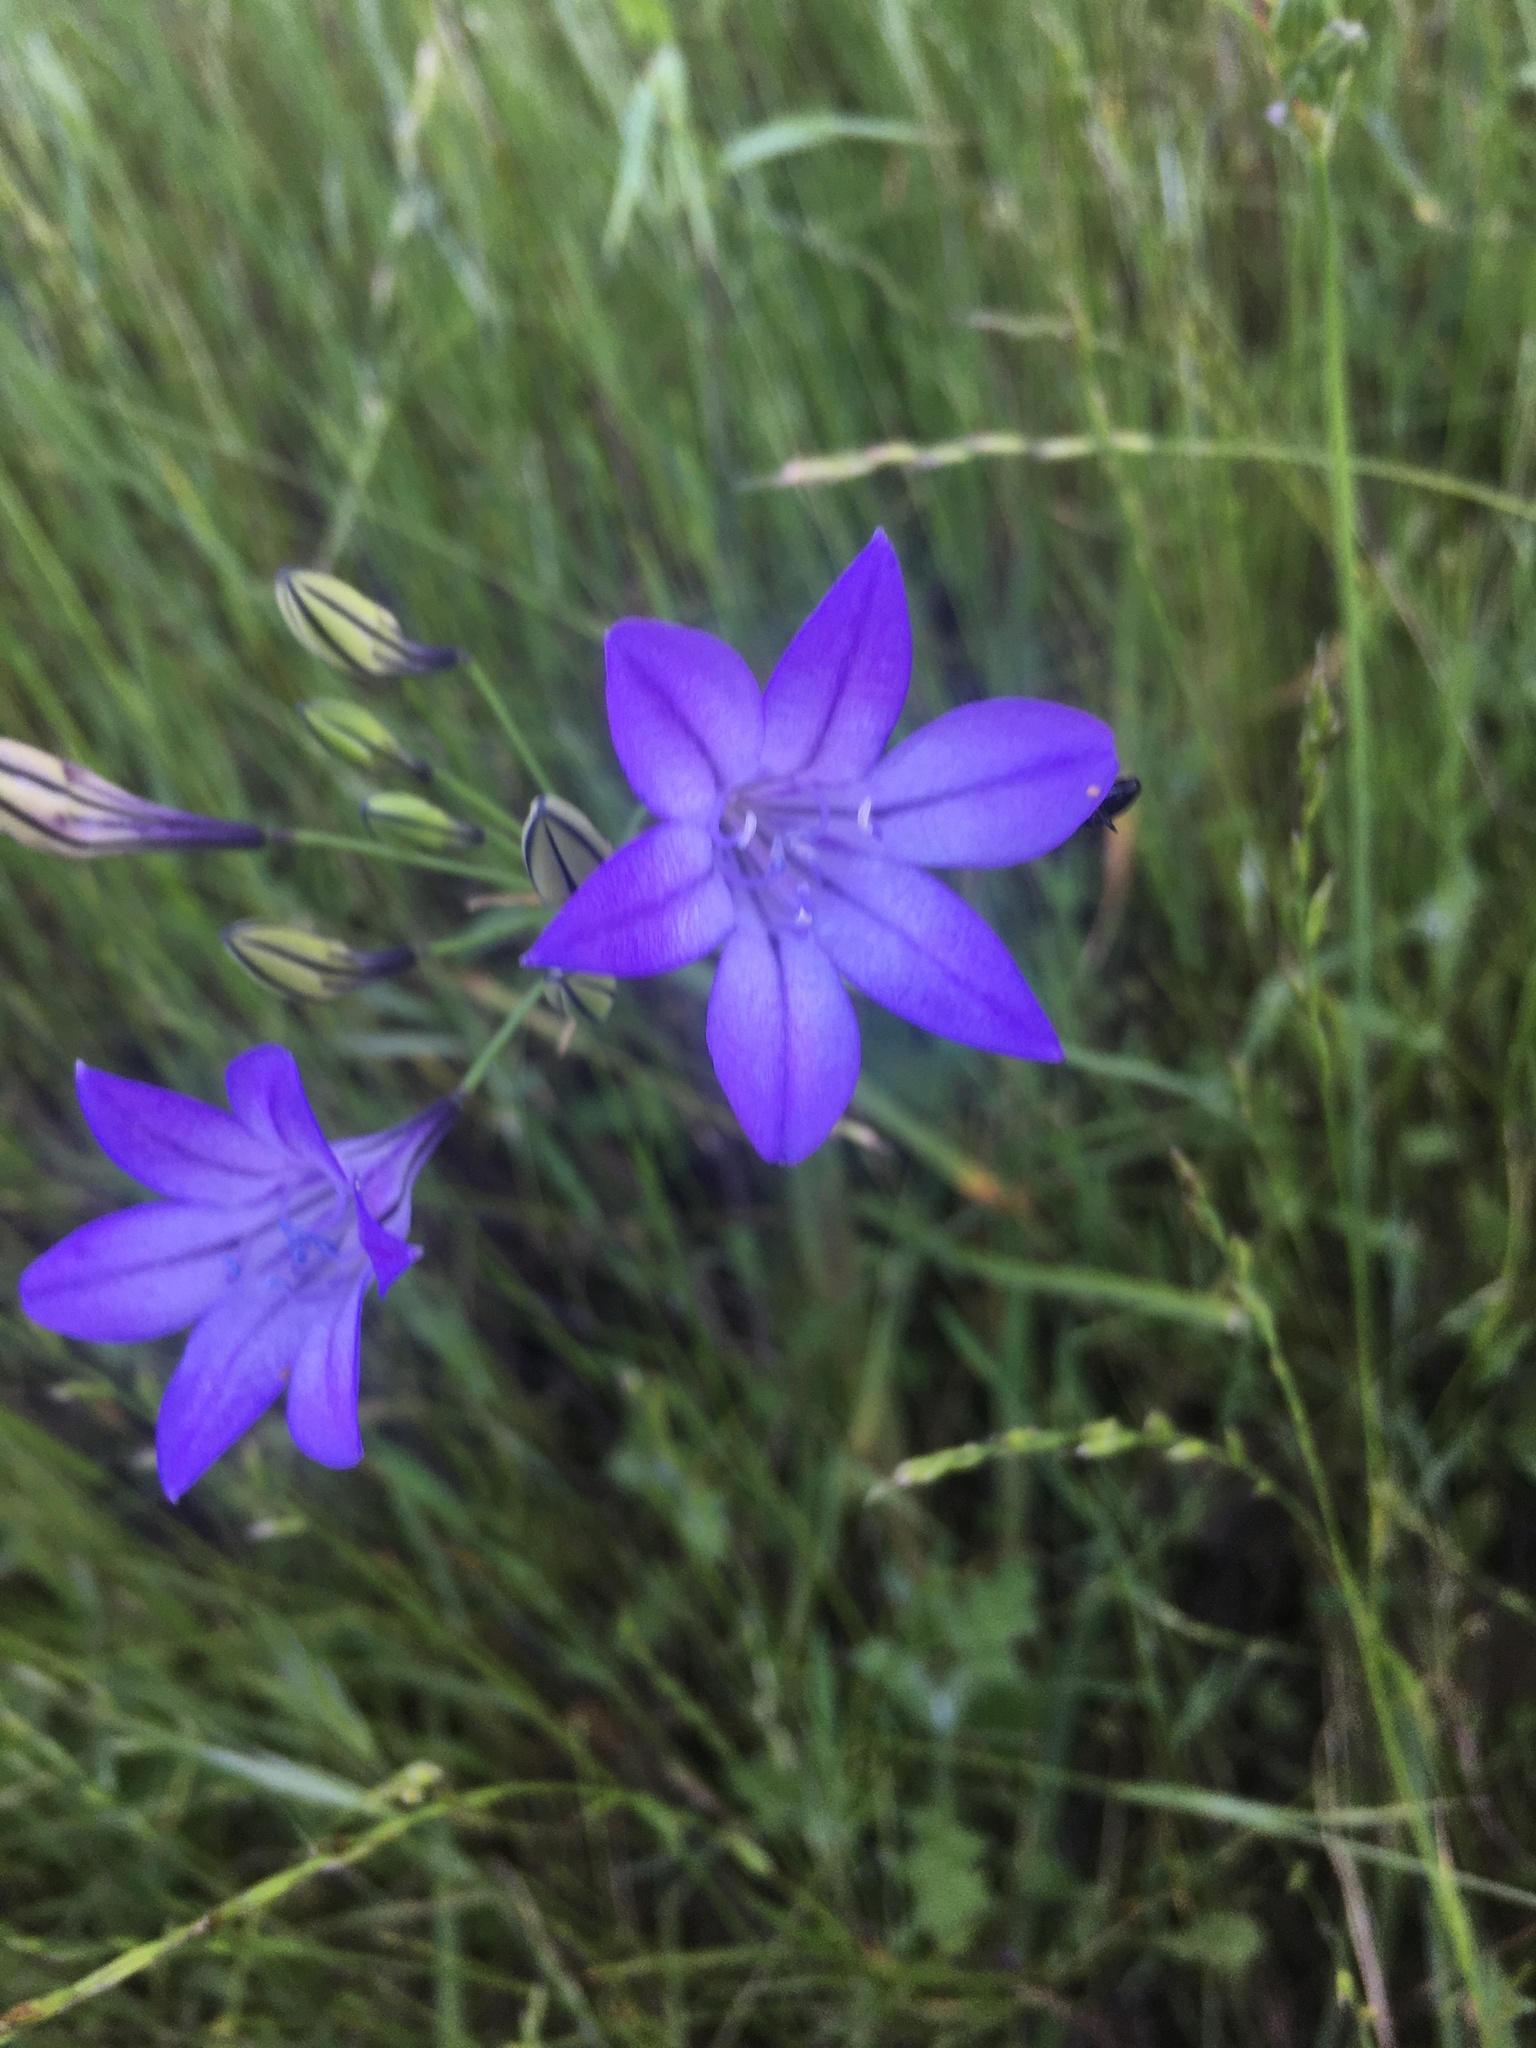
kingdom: Plantae
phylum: Tracheophyta
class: Liliopsida
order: Asparagales
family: Asparagaceae
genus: Triteleia
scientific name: Triteleia laxa
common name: Triplet-lily
